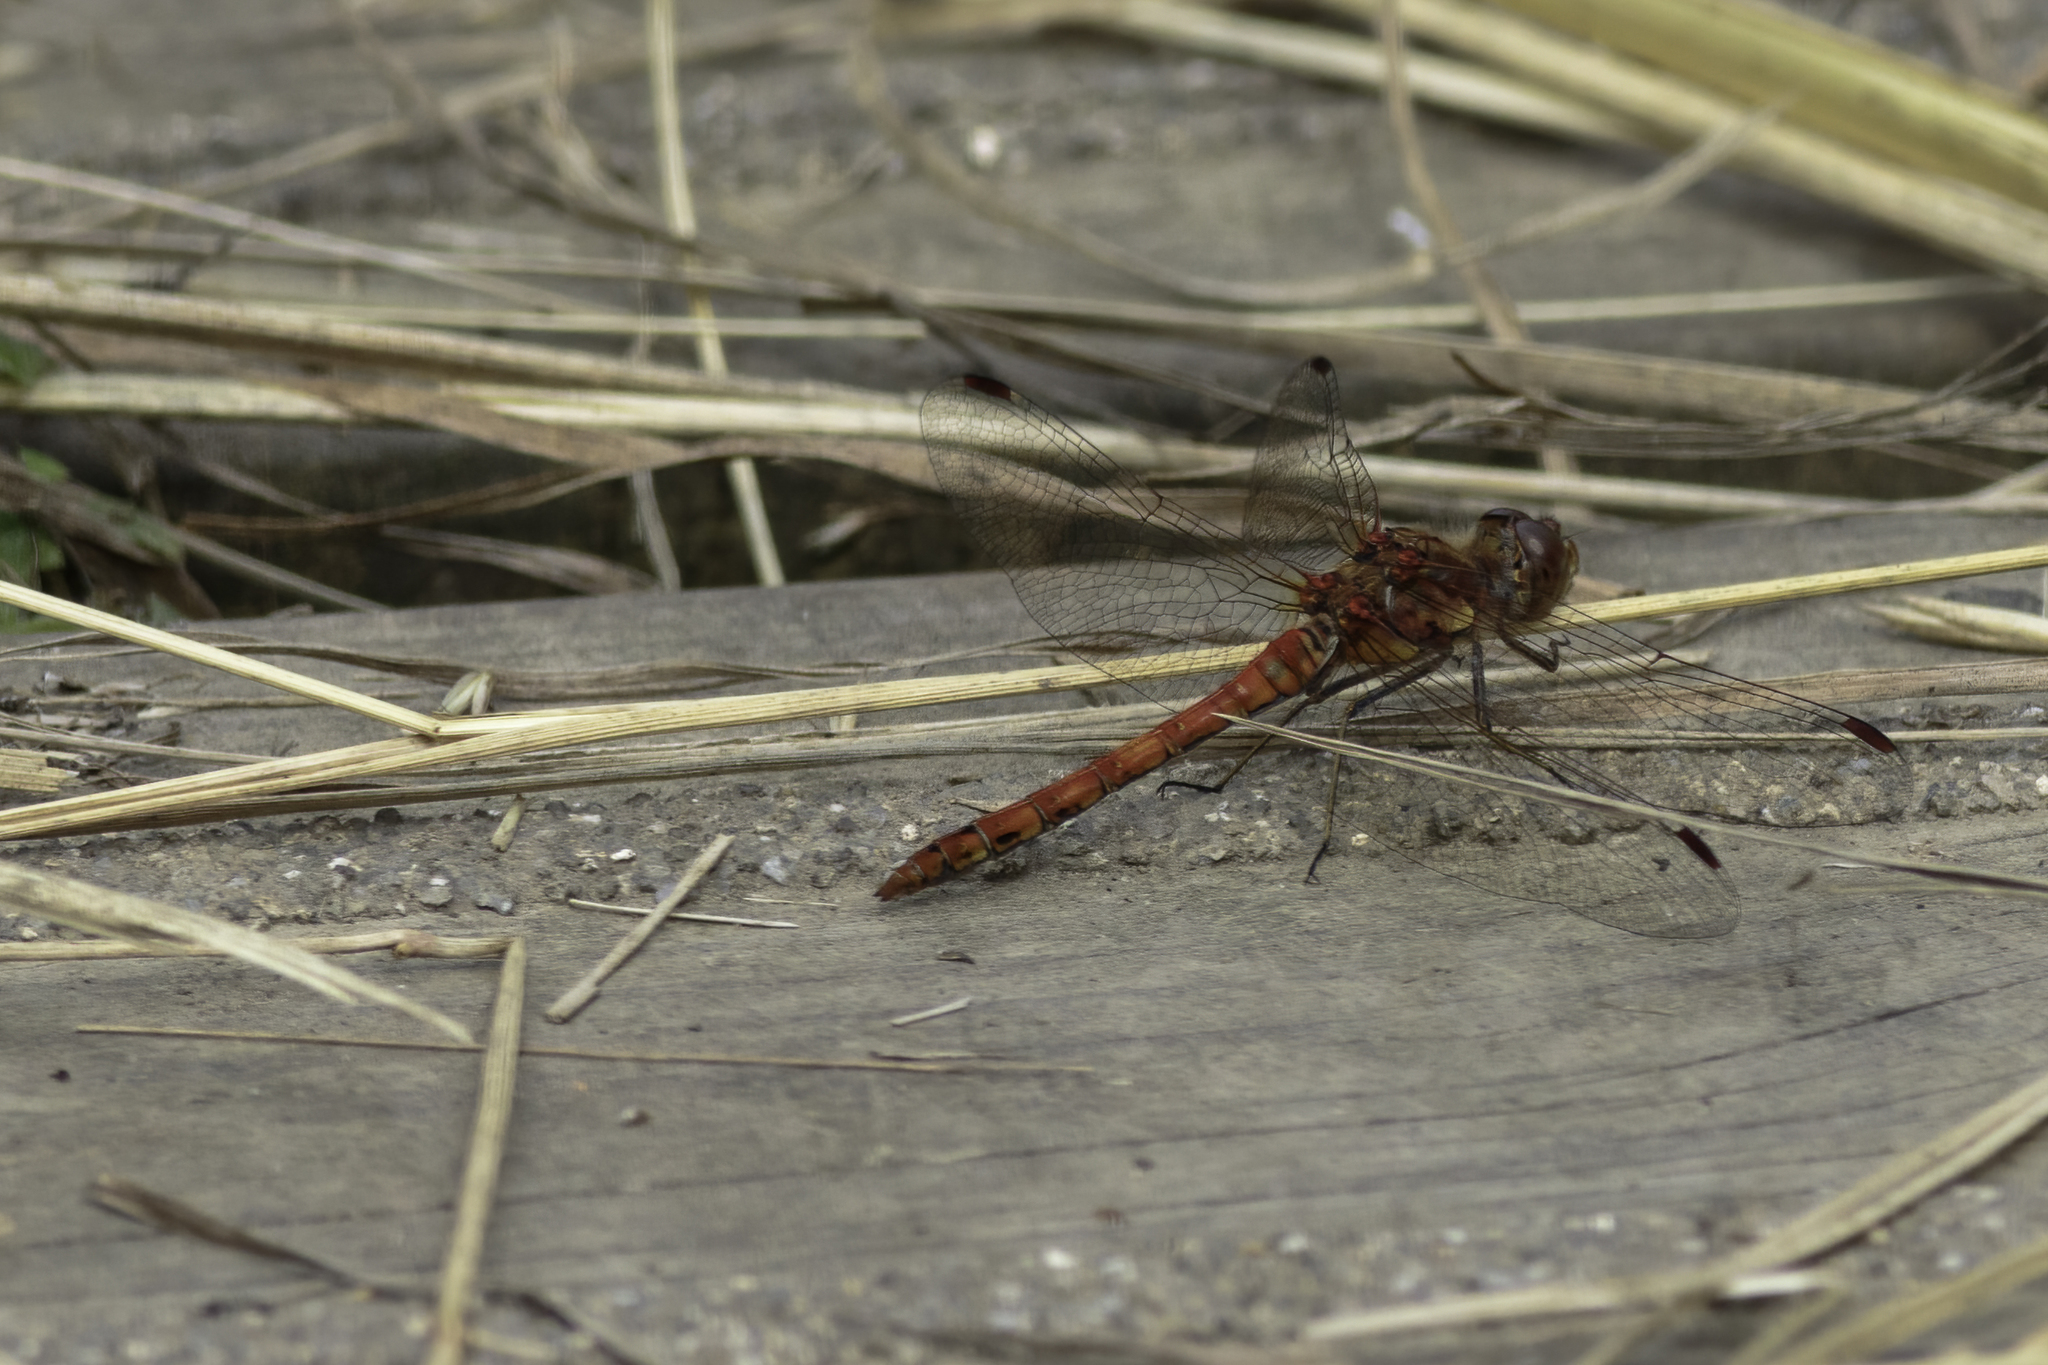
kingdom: Animalia
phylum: Arthropoda
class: Insecta
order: Odonata
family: Libellulidae
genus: Sympetrum
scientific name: Sympetrum striolatum
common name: Common darter
